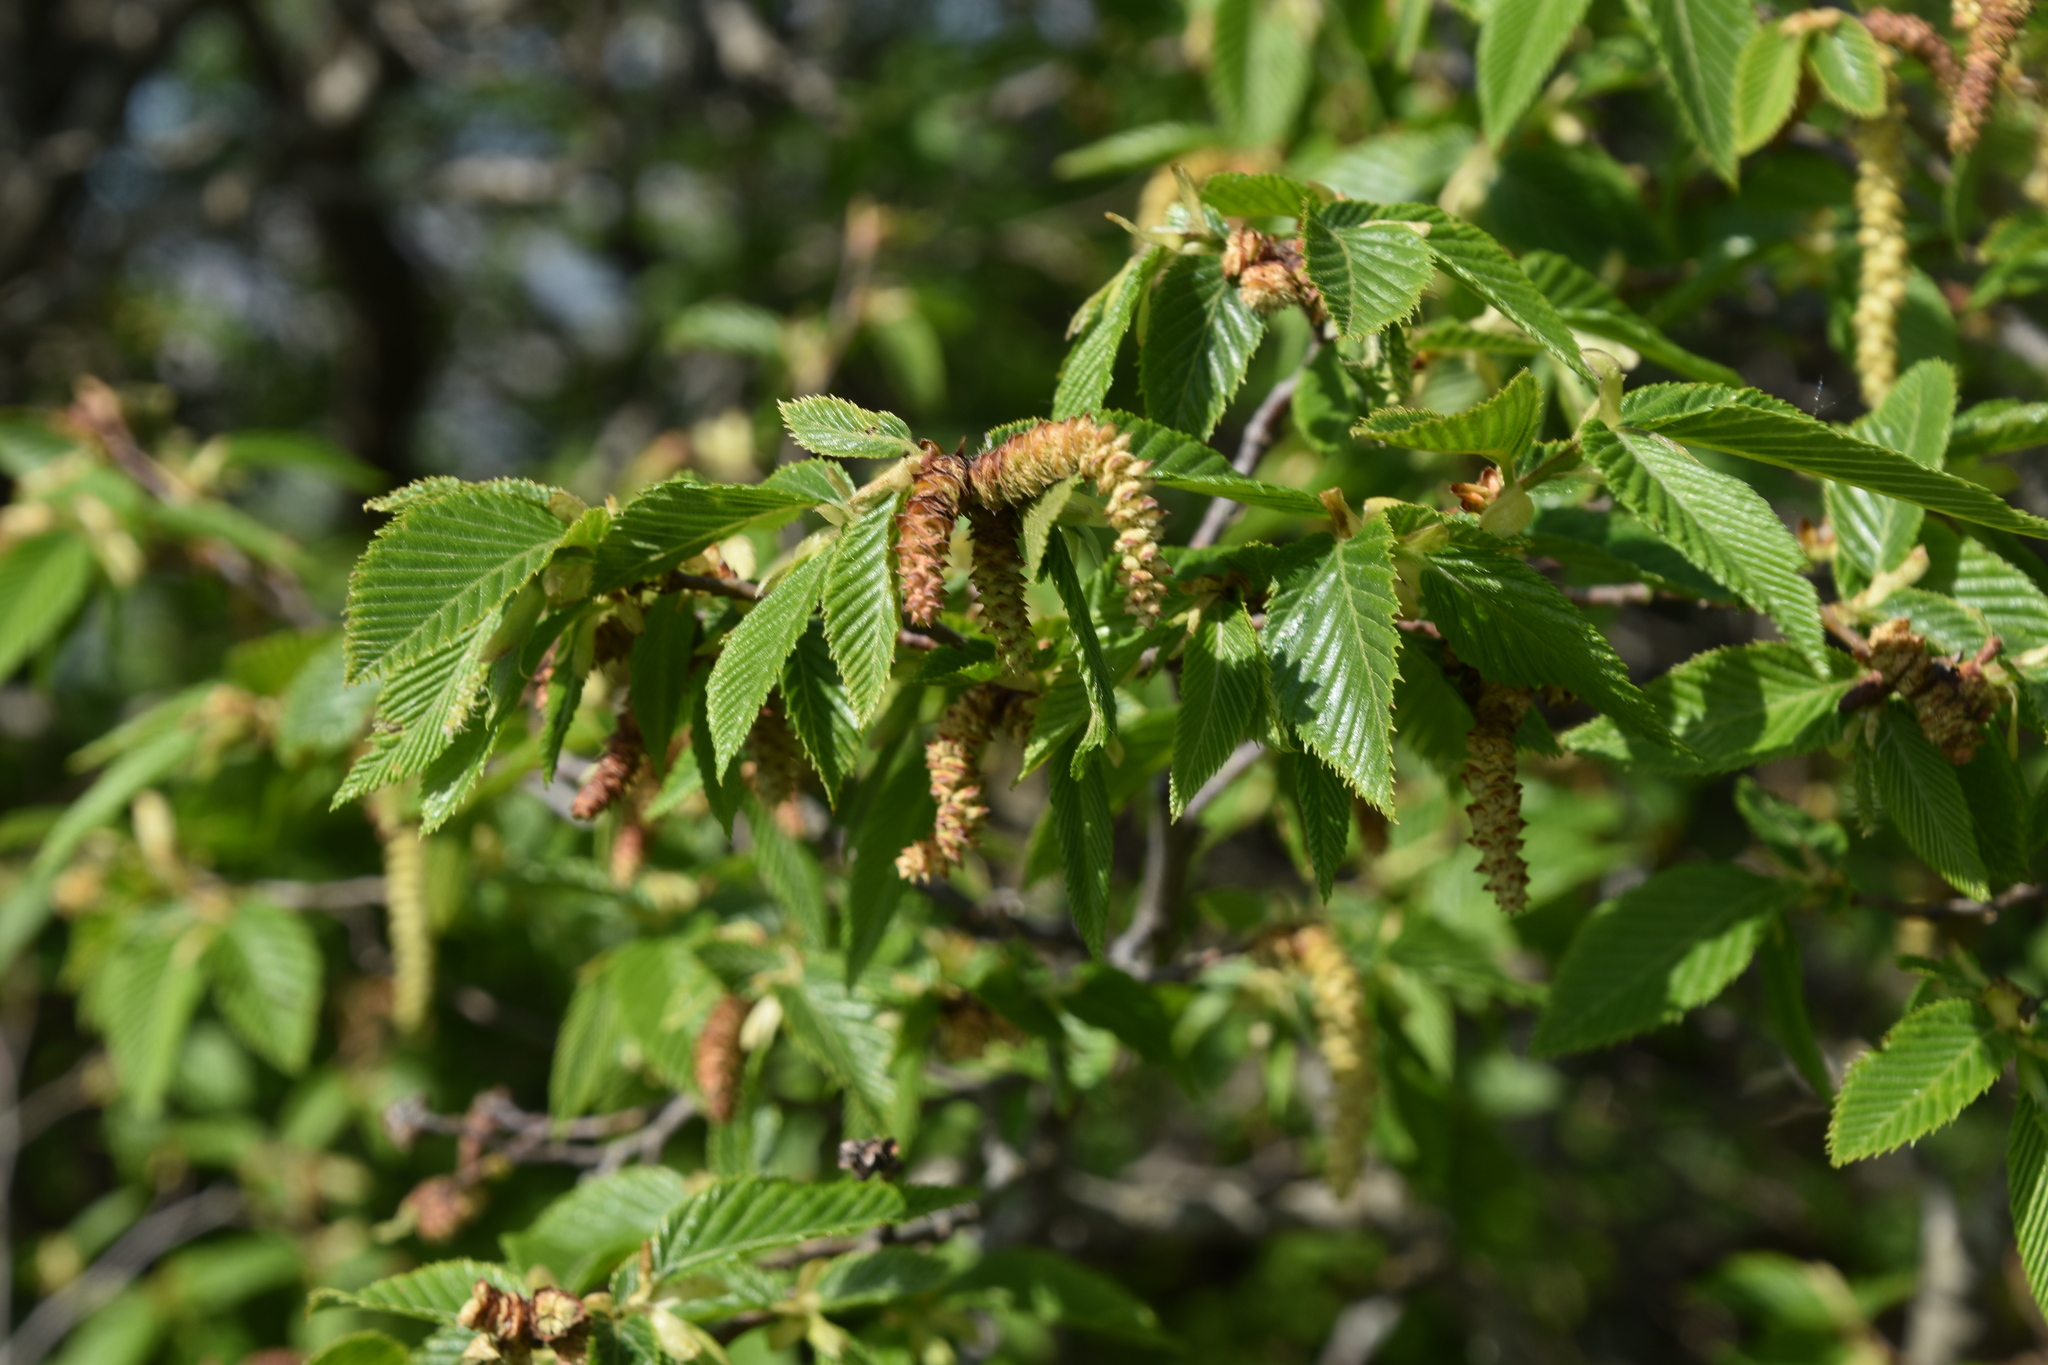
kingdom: Plantae
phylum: Tracheophyta
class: Magnoliopsida
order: Fagales
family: Betulaceae
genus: Ostrya
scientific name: Ostrya carpinifolia
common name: European hop-hornbeam
